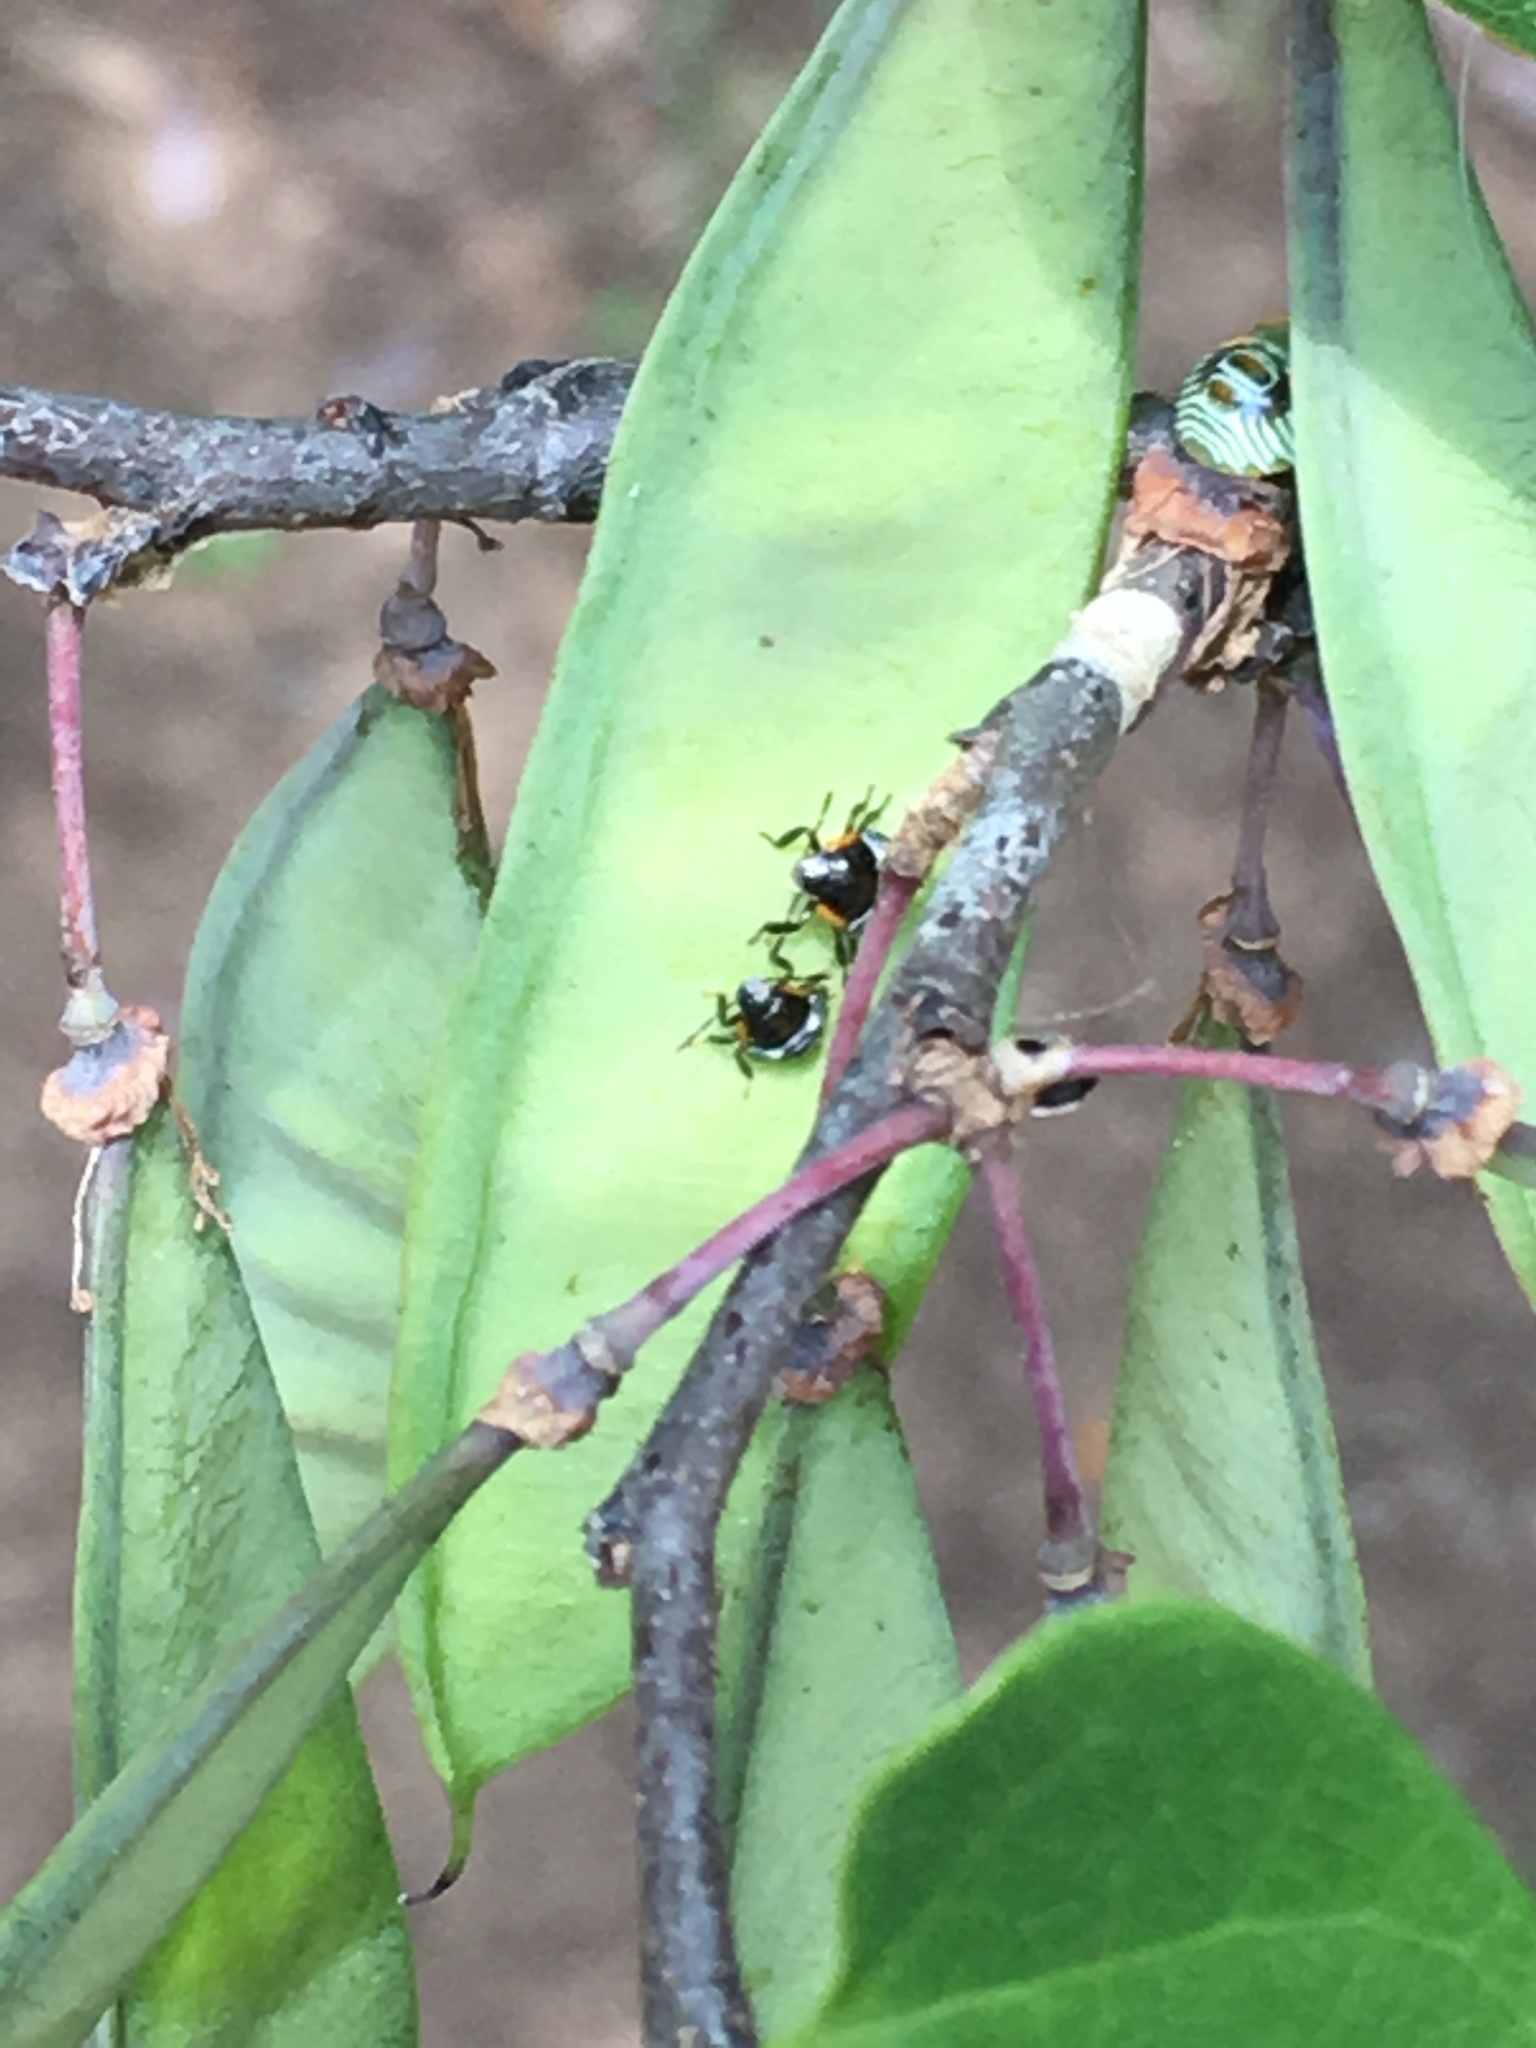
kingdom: Animalia
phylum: Arthropoda
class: Insecta
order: Hemiptera
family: Pentatomidae
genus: Chinavia
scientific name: Chinavia hilaris
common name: Green stink bug
